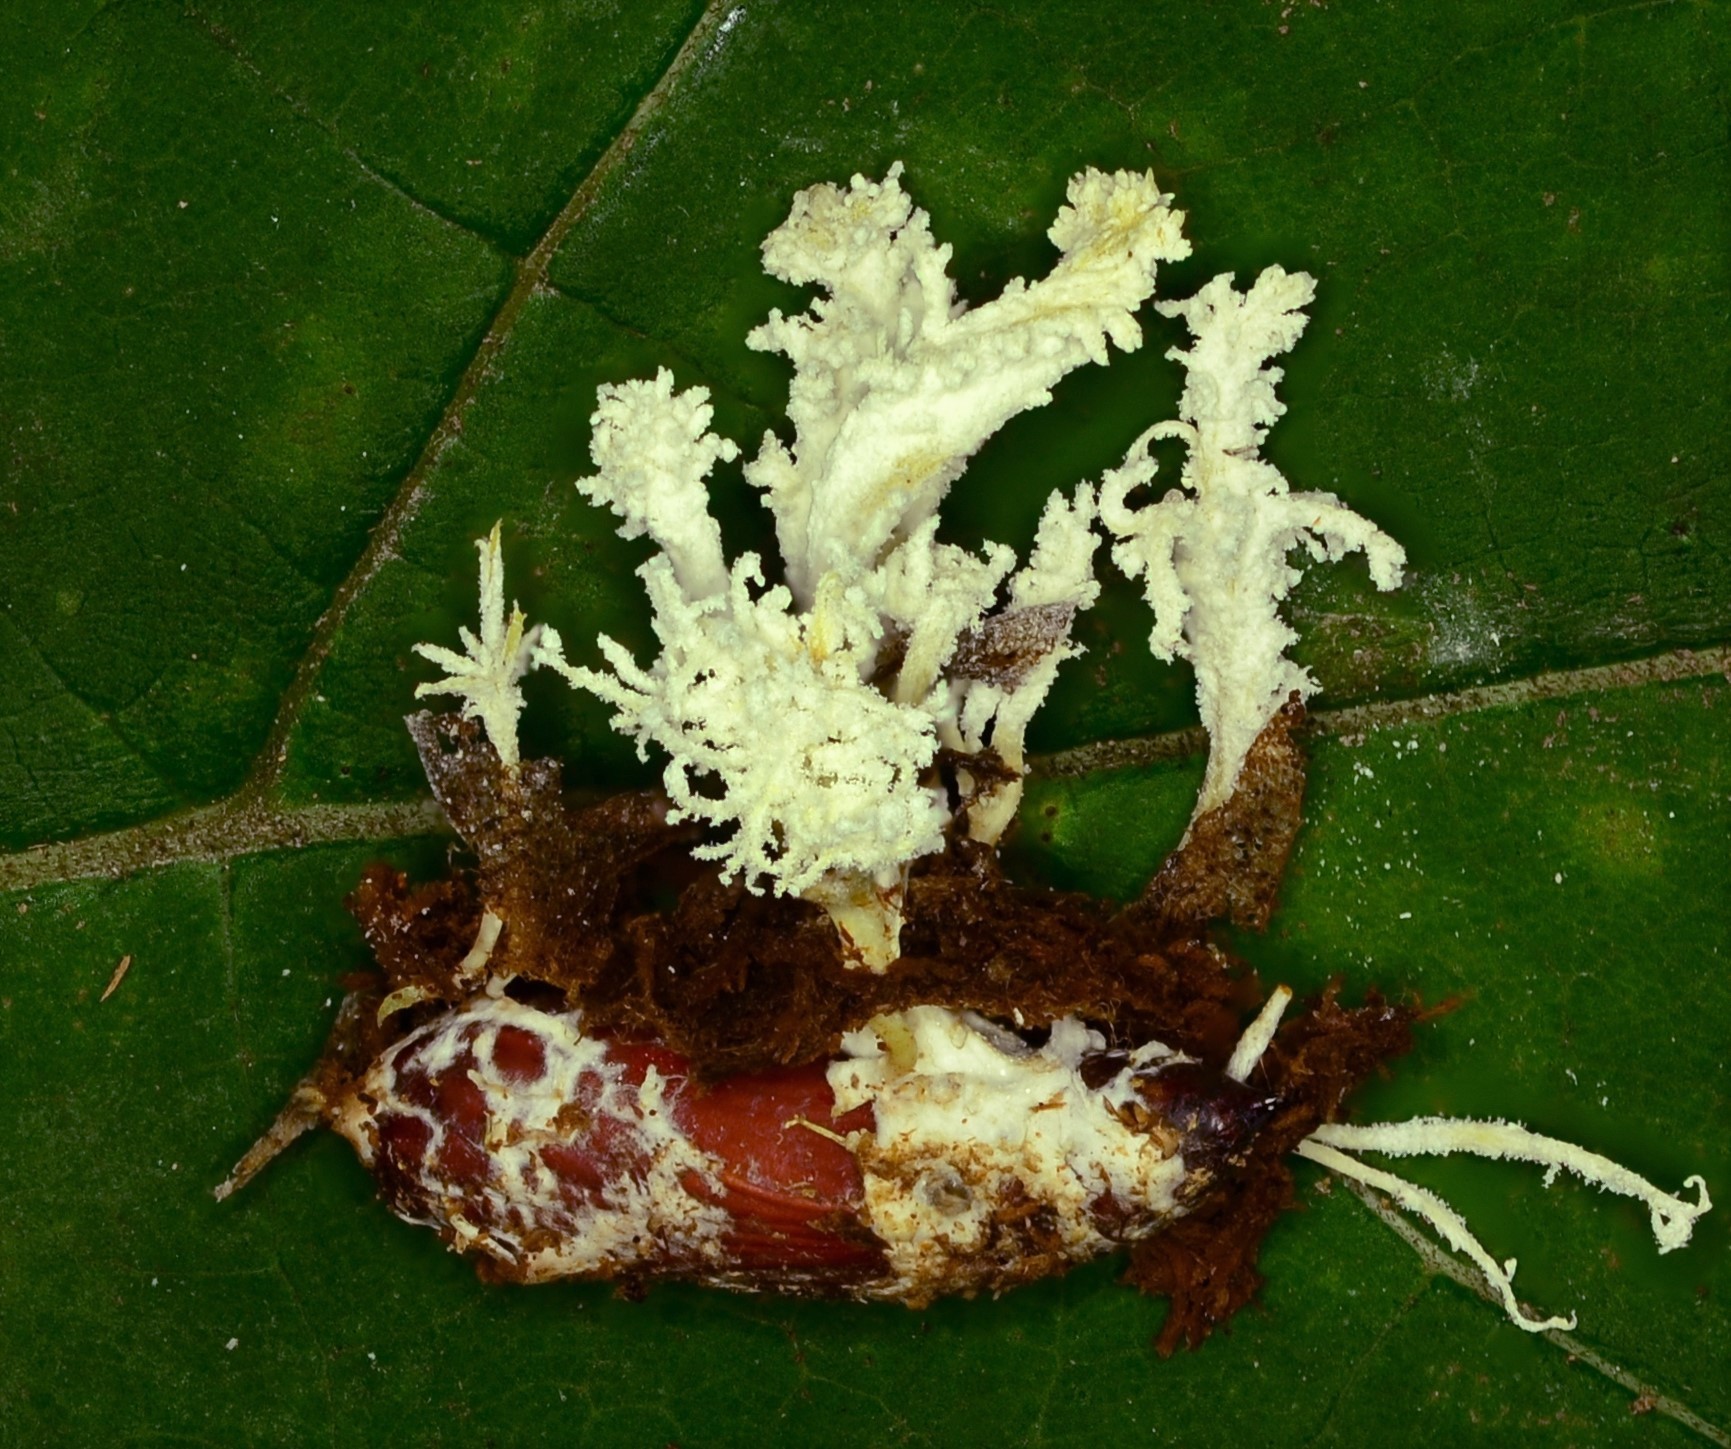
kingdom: Fungi
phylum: Ascomycota
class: Sordariomycetes
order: Hypocreales
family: Cordycipitaceae
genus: Cordyceps
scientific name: Cordyceps tenuipes
